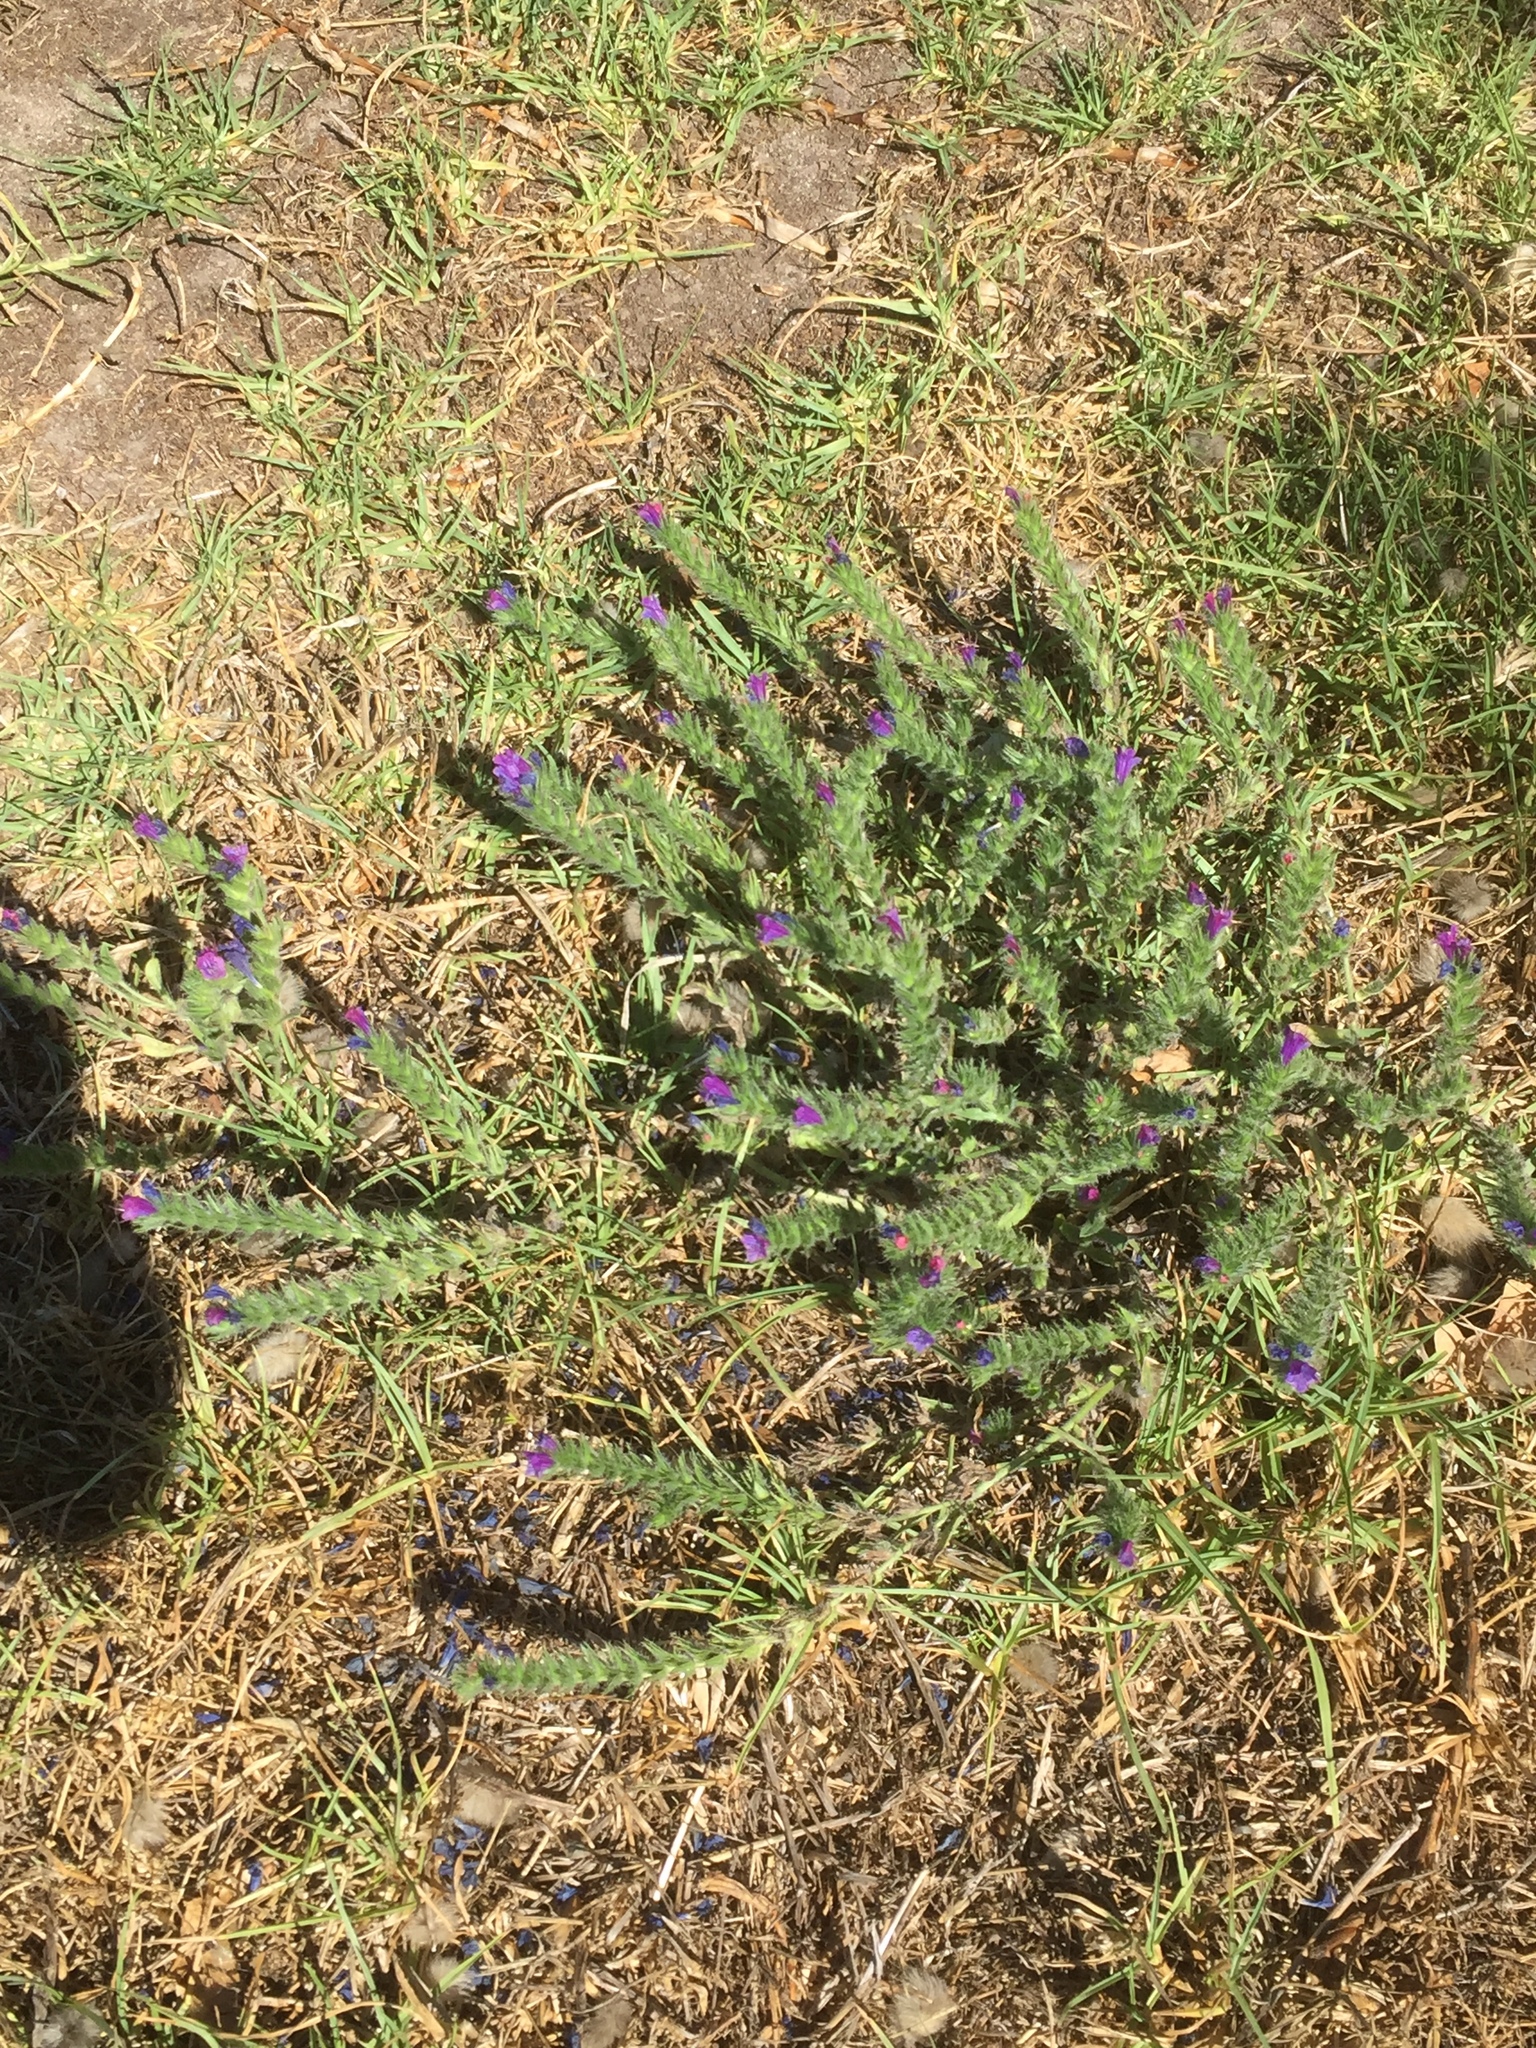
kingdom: Plantae
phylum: Tracheophyta
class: Magnoliopsida
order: Boraginales
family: Boraginaceae
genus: Echium
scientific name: Echium plantagineum
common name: Purple viper's-bugloss
